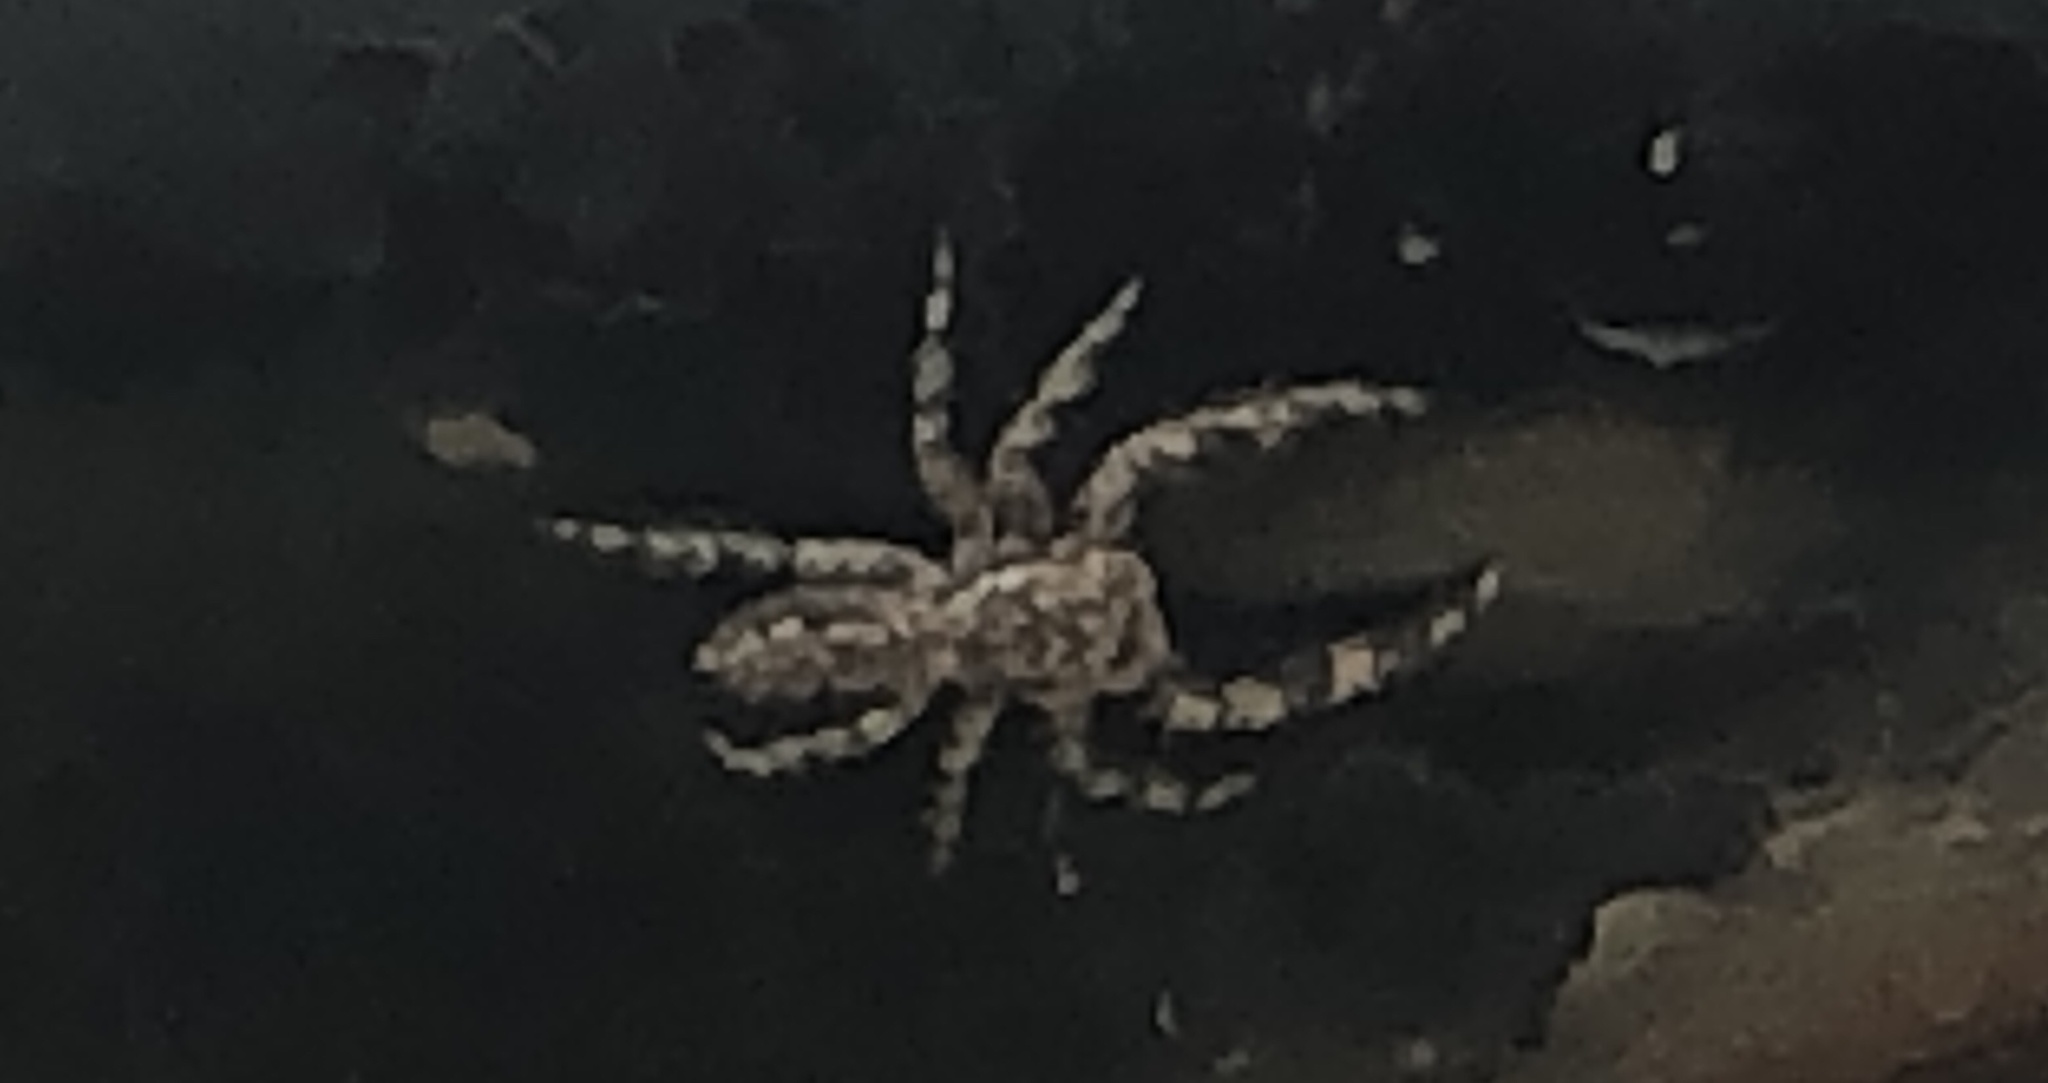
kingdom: Animalia
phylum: Arthropoda
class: Arachnida
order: Araneae
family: Salticidae
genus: Platycryptus
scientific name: Platycryptus undatus
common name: Tan jumping spider
